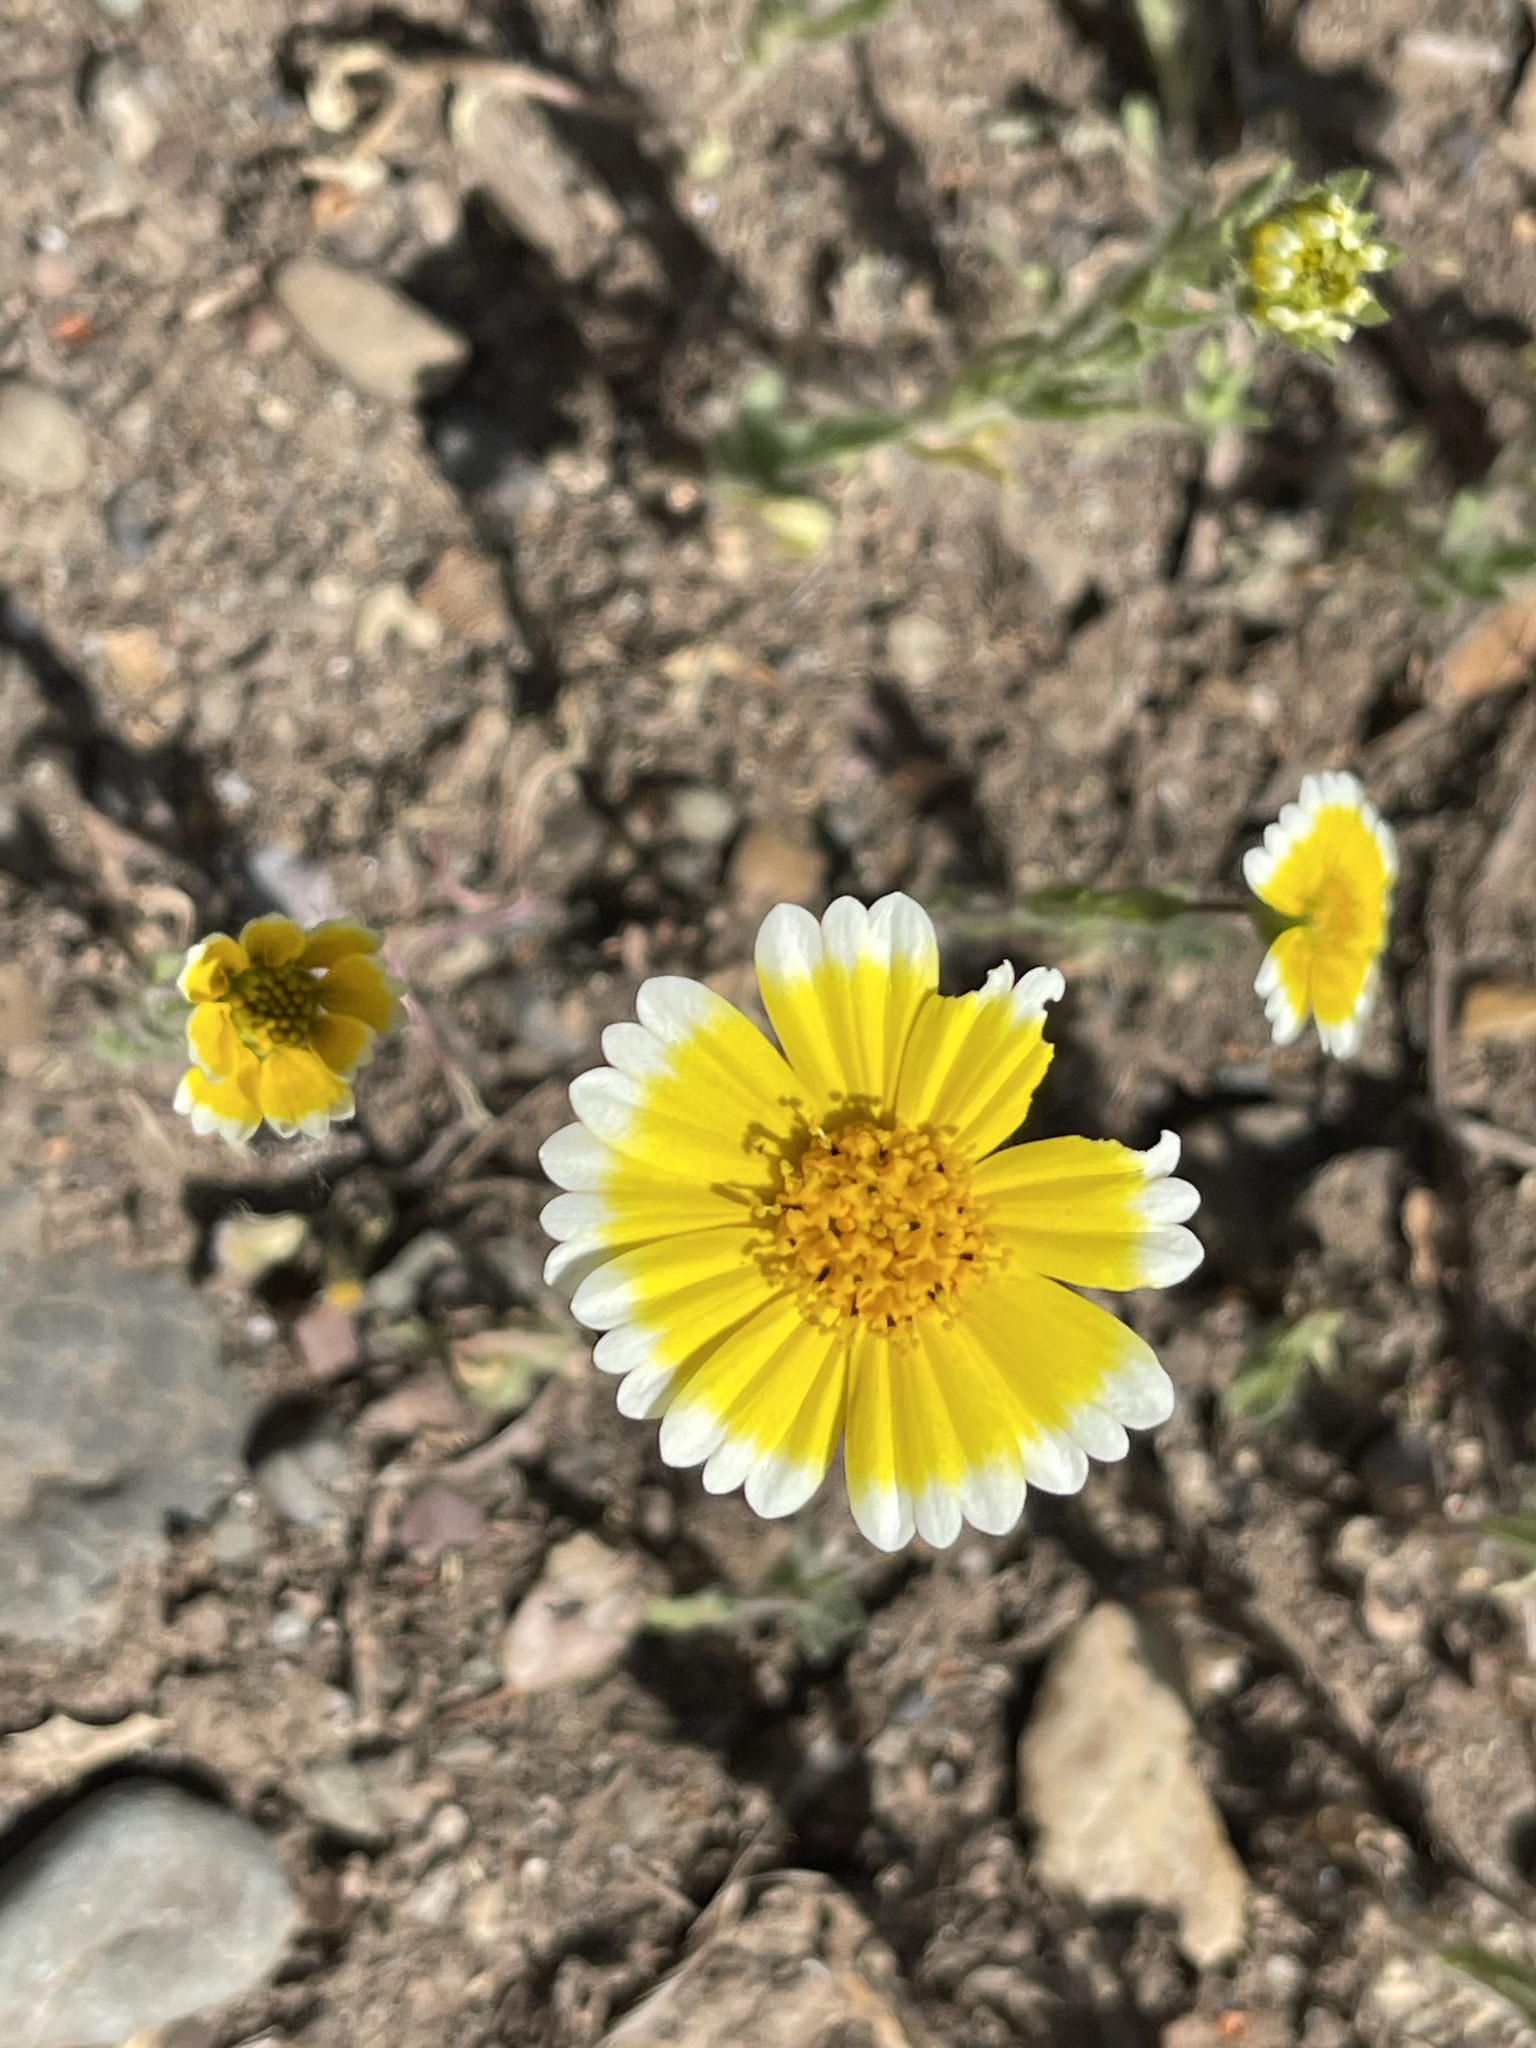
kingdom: Plantae
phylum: Tracheophyta
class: Magnoliopsida
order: Asterales
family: Asteraceae
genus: Layia
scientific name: Layia platyglossa
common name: Tidy-tips
